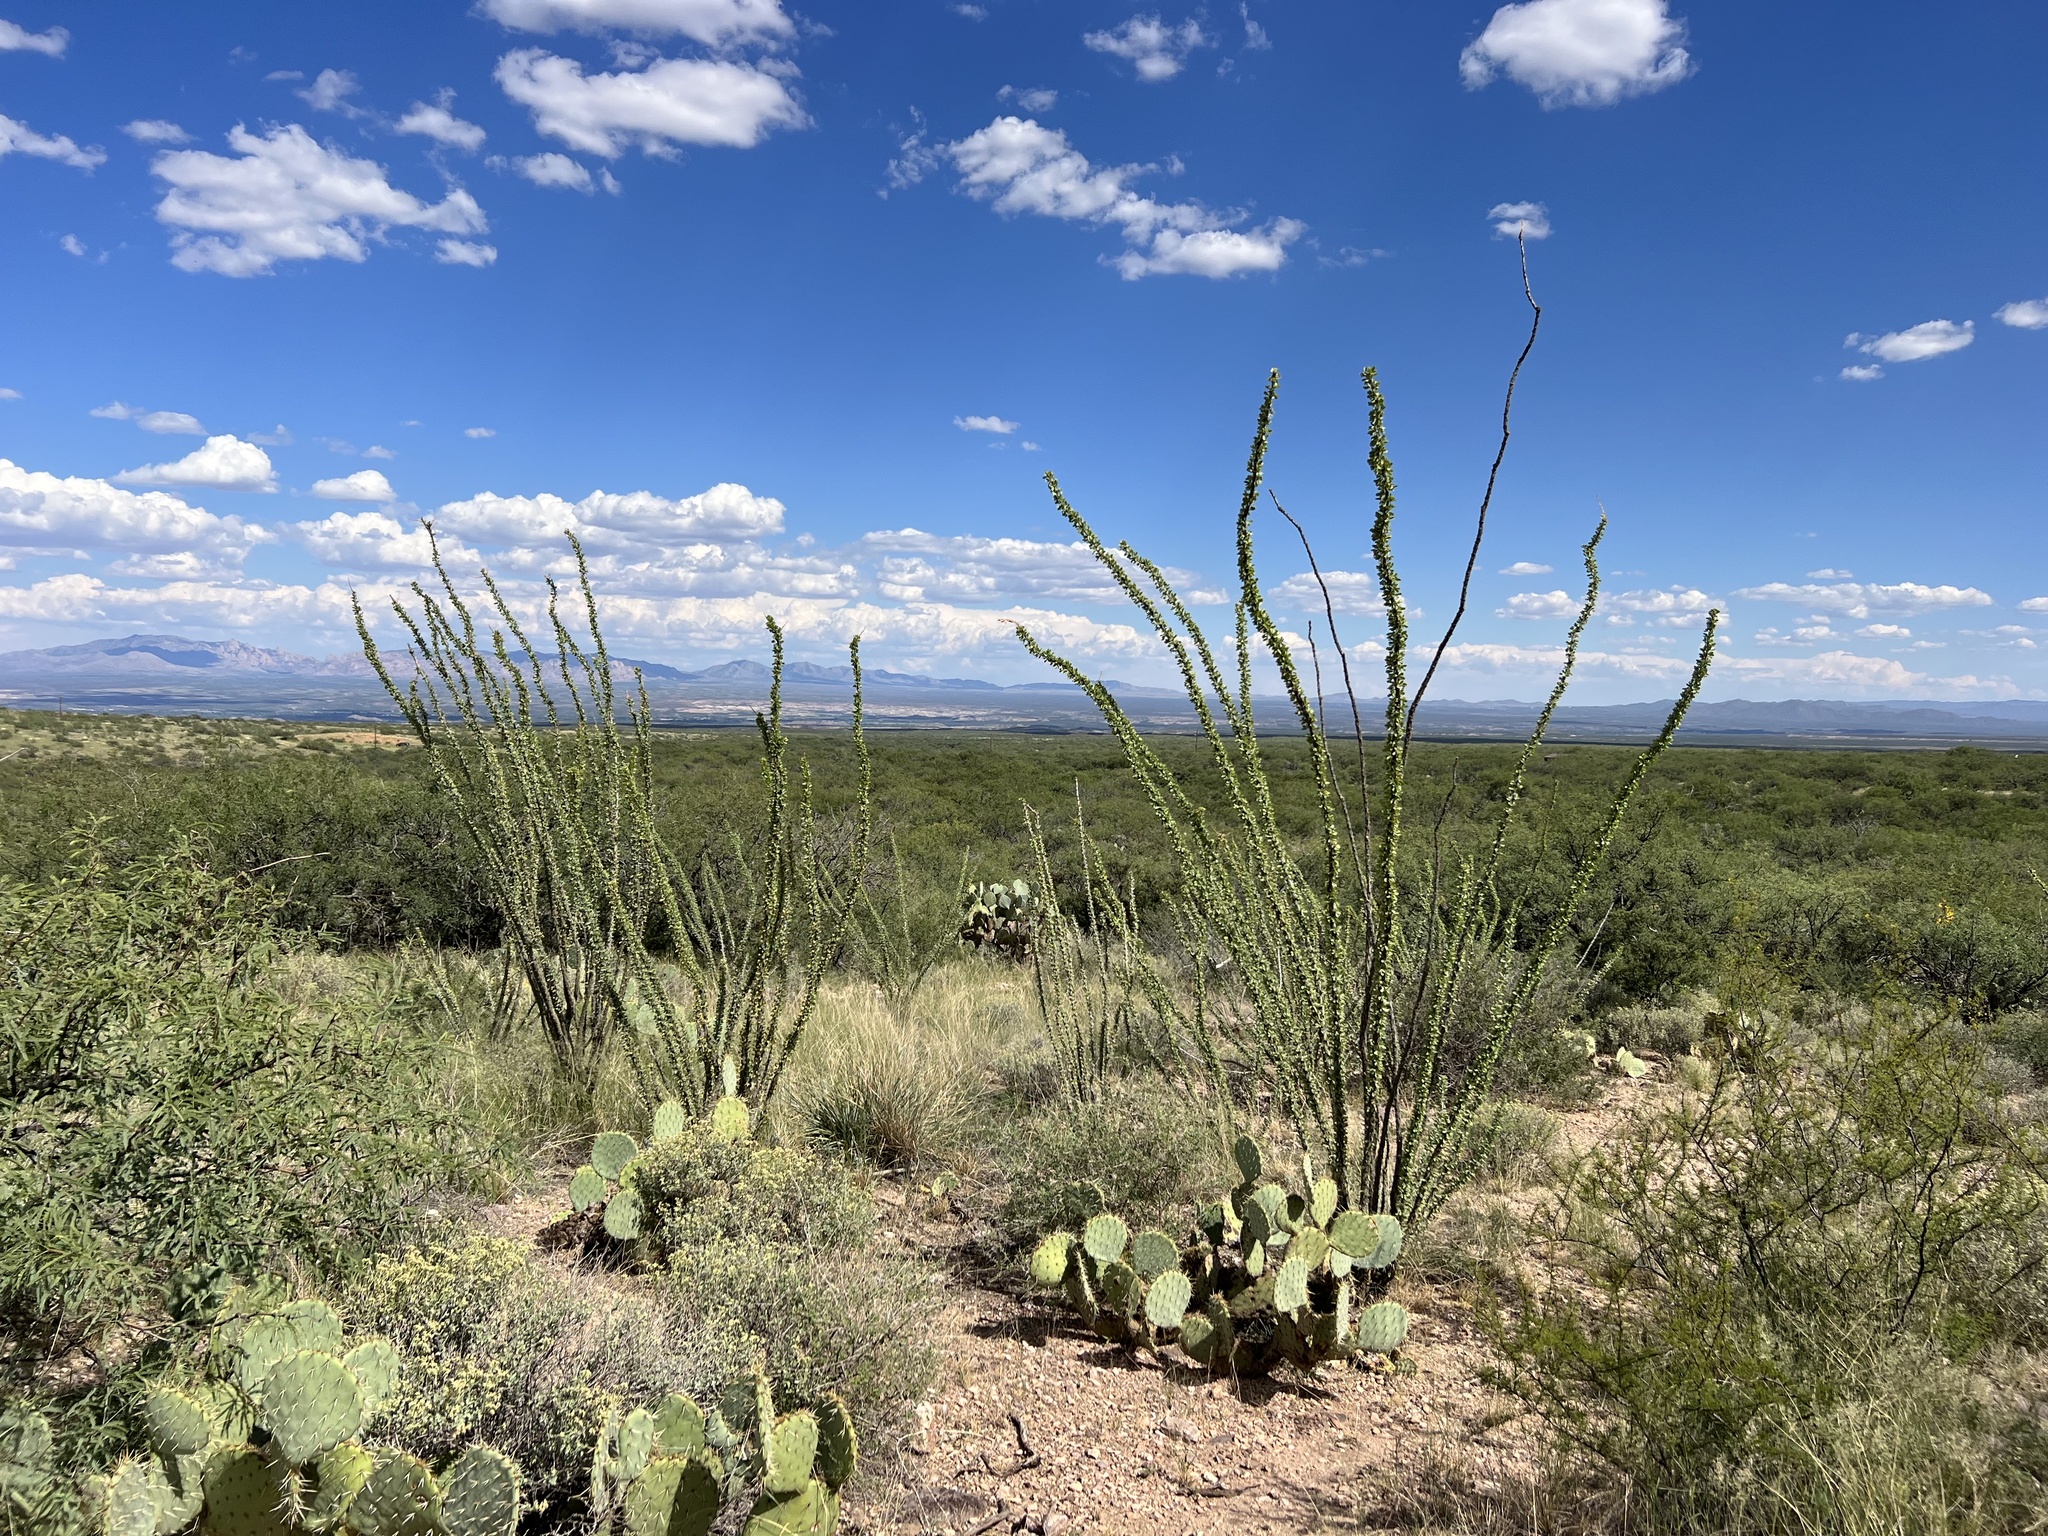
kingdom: Plantae
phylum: Tracheophyta
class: Magnoliopsida
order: Ericales
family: Fouquieriaceae
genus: Fouquieria
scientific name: Fouquieria splendens
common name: Vine-cactus
